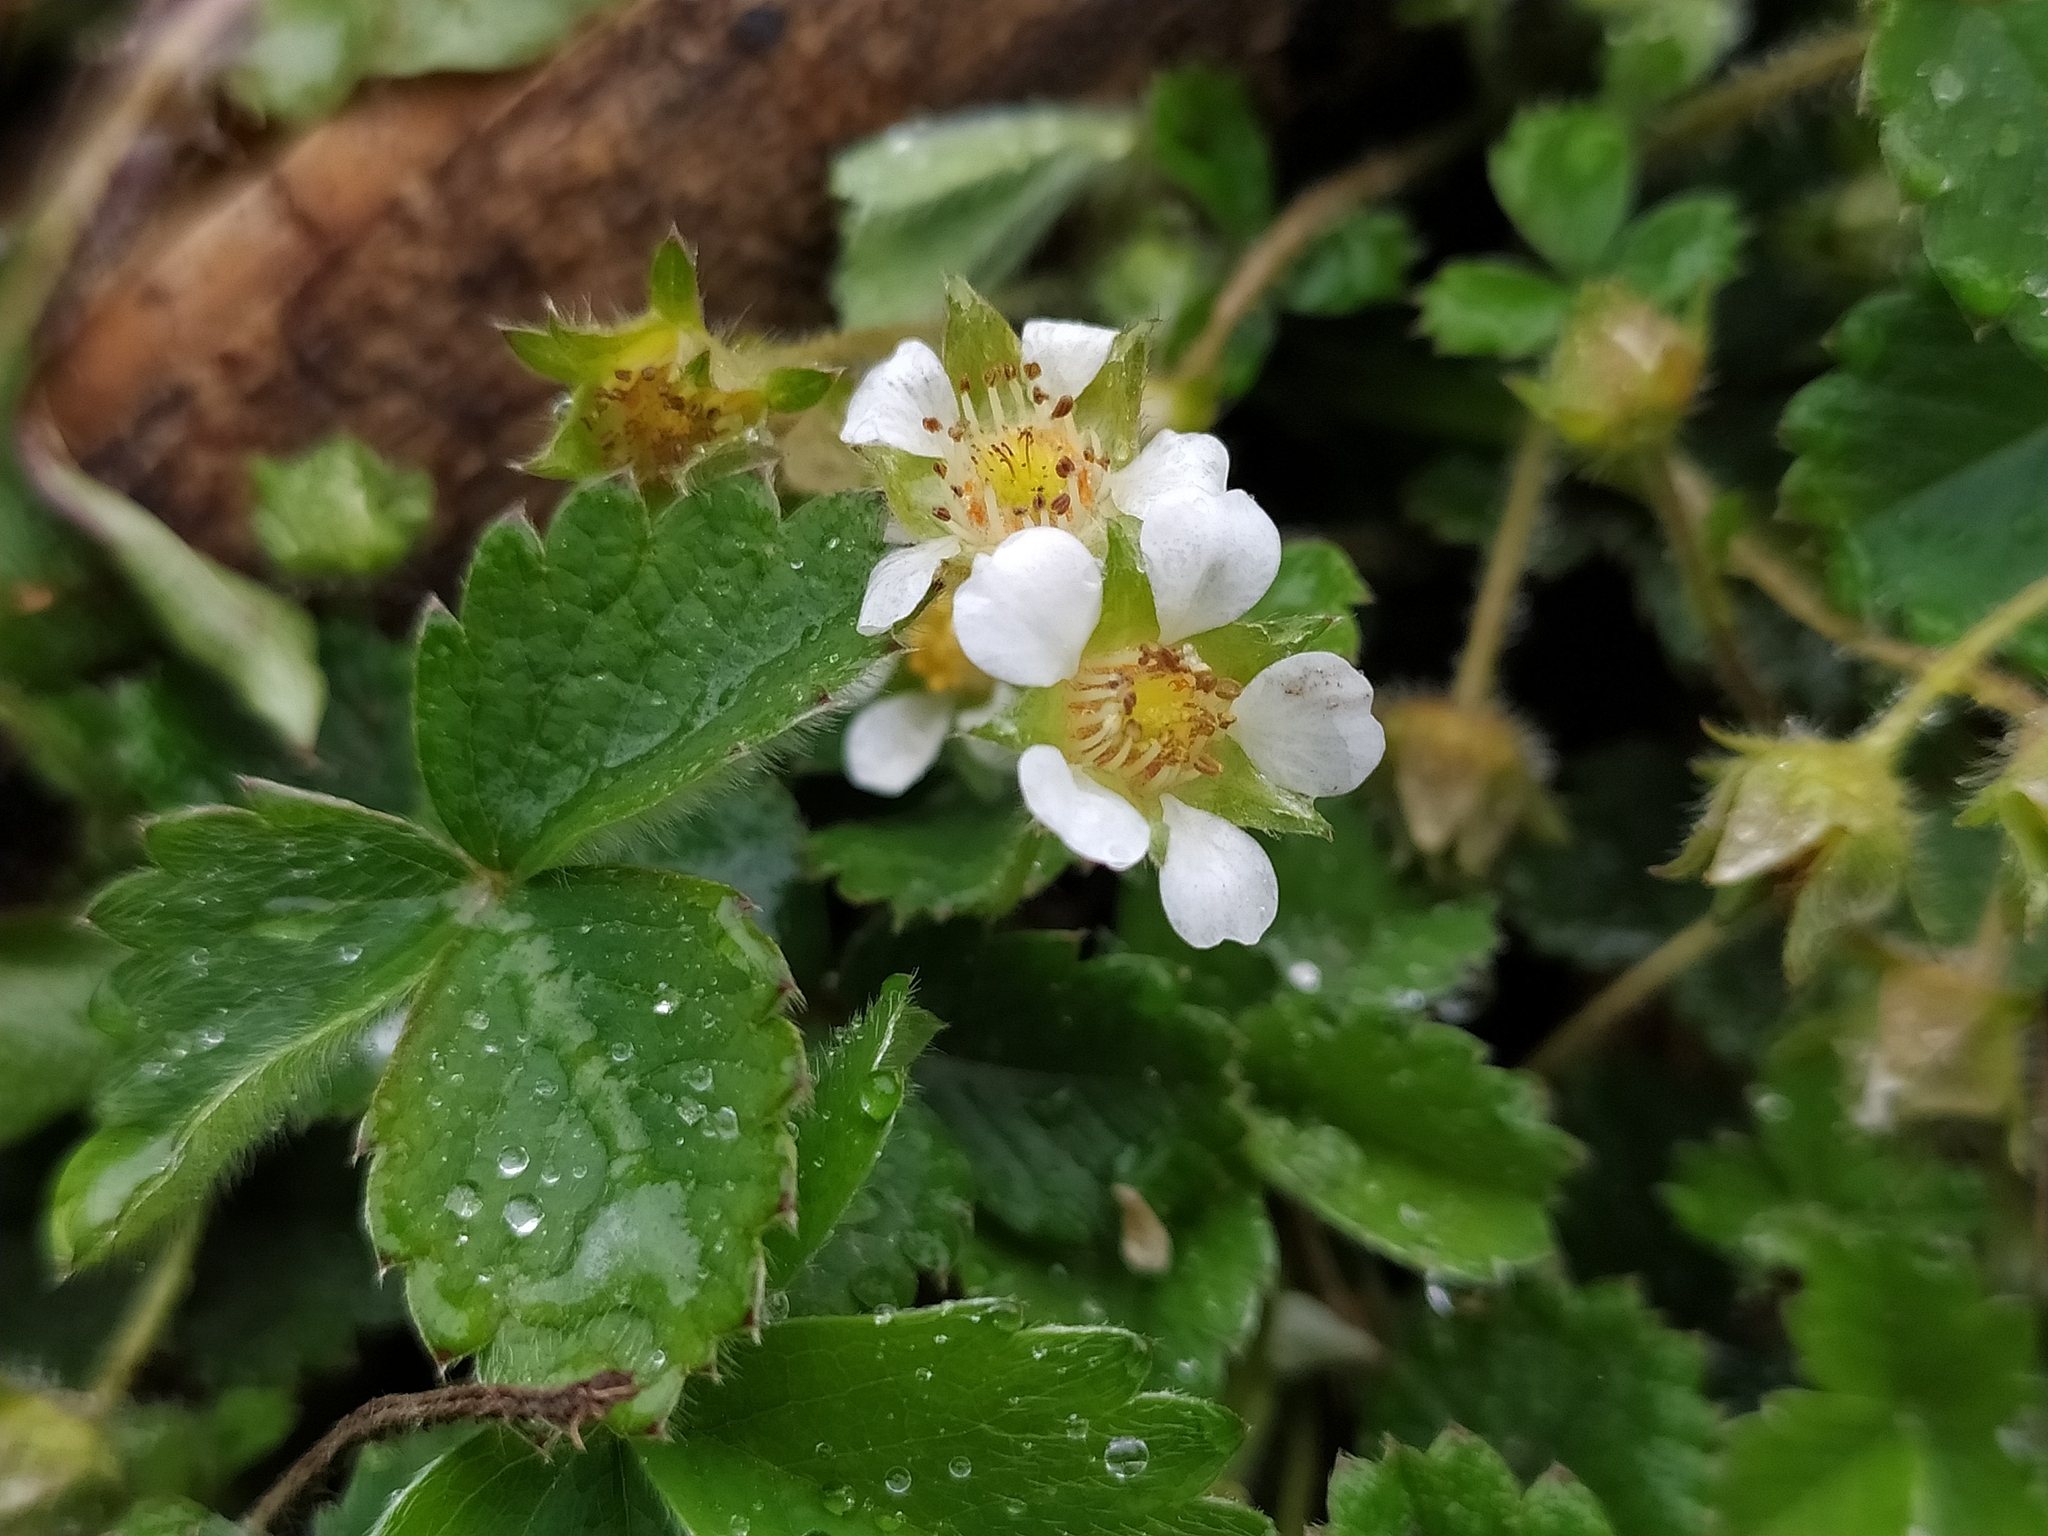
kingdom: Plantae
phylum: Tracheophyta
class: Magnoliopsida
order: Rosales
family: Rosaceae
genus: Potentilla
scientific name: Potentilla sterilis
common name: Barren strawberry
